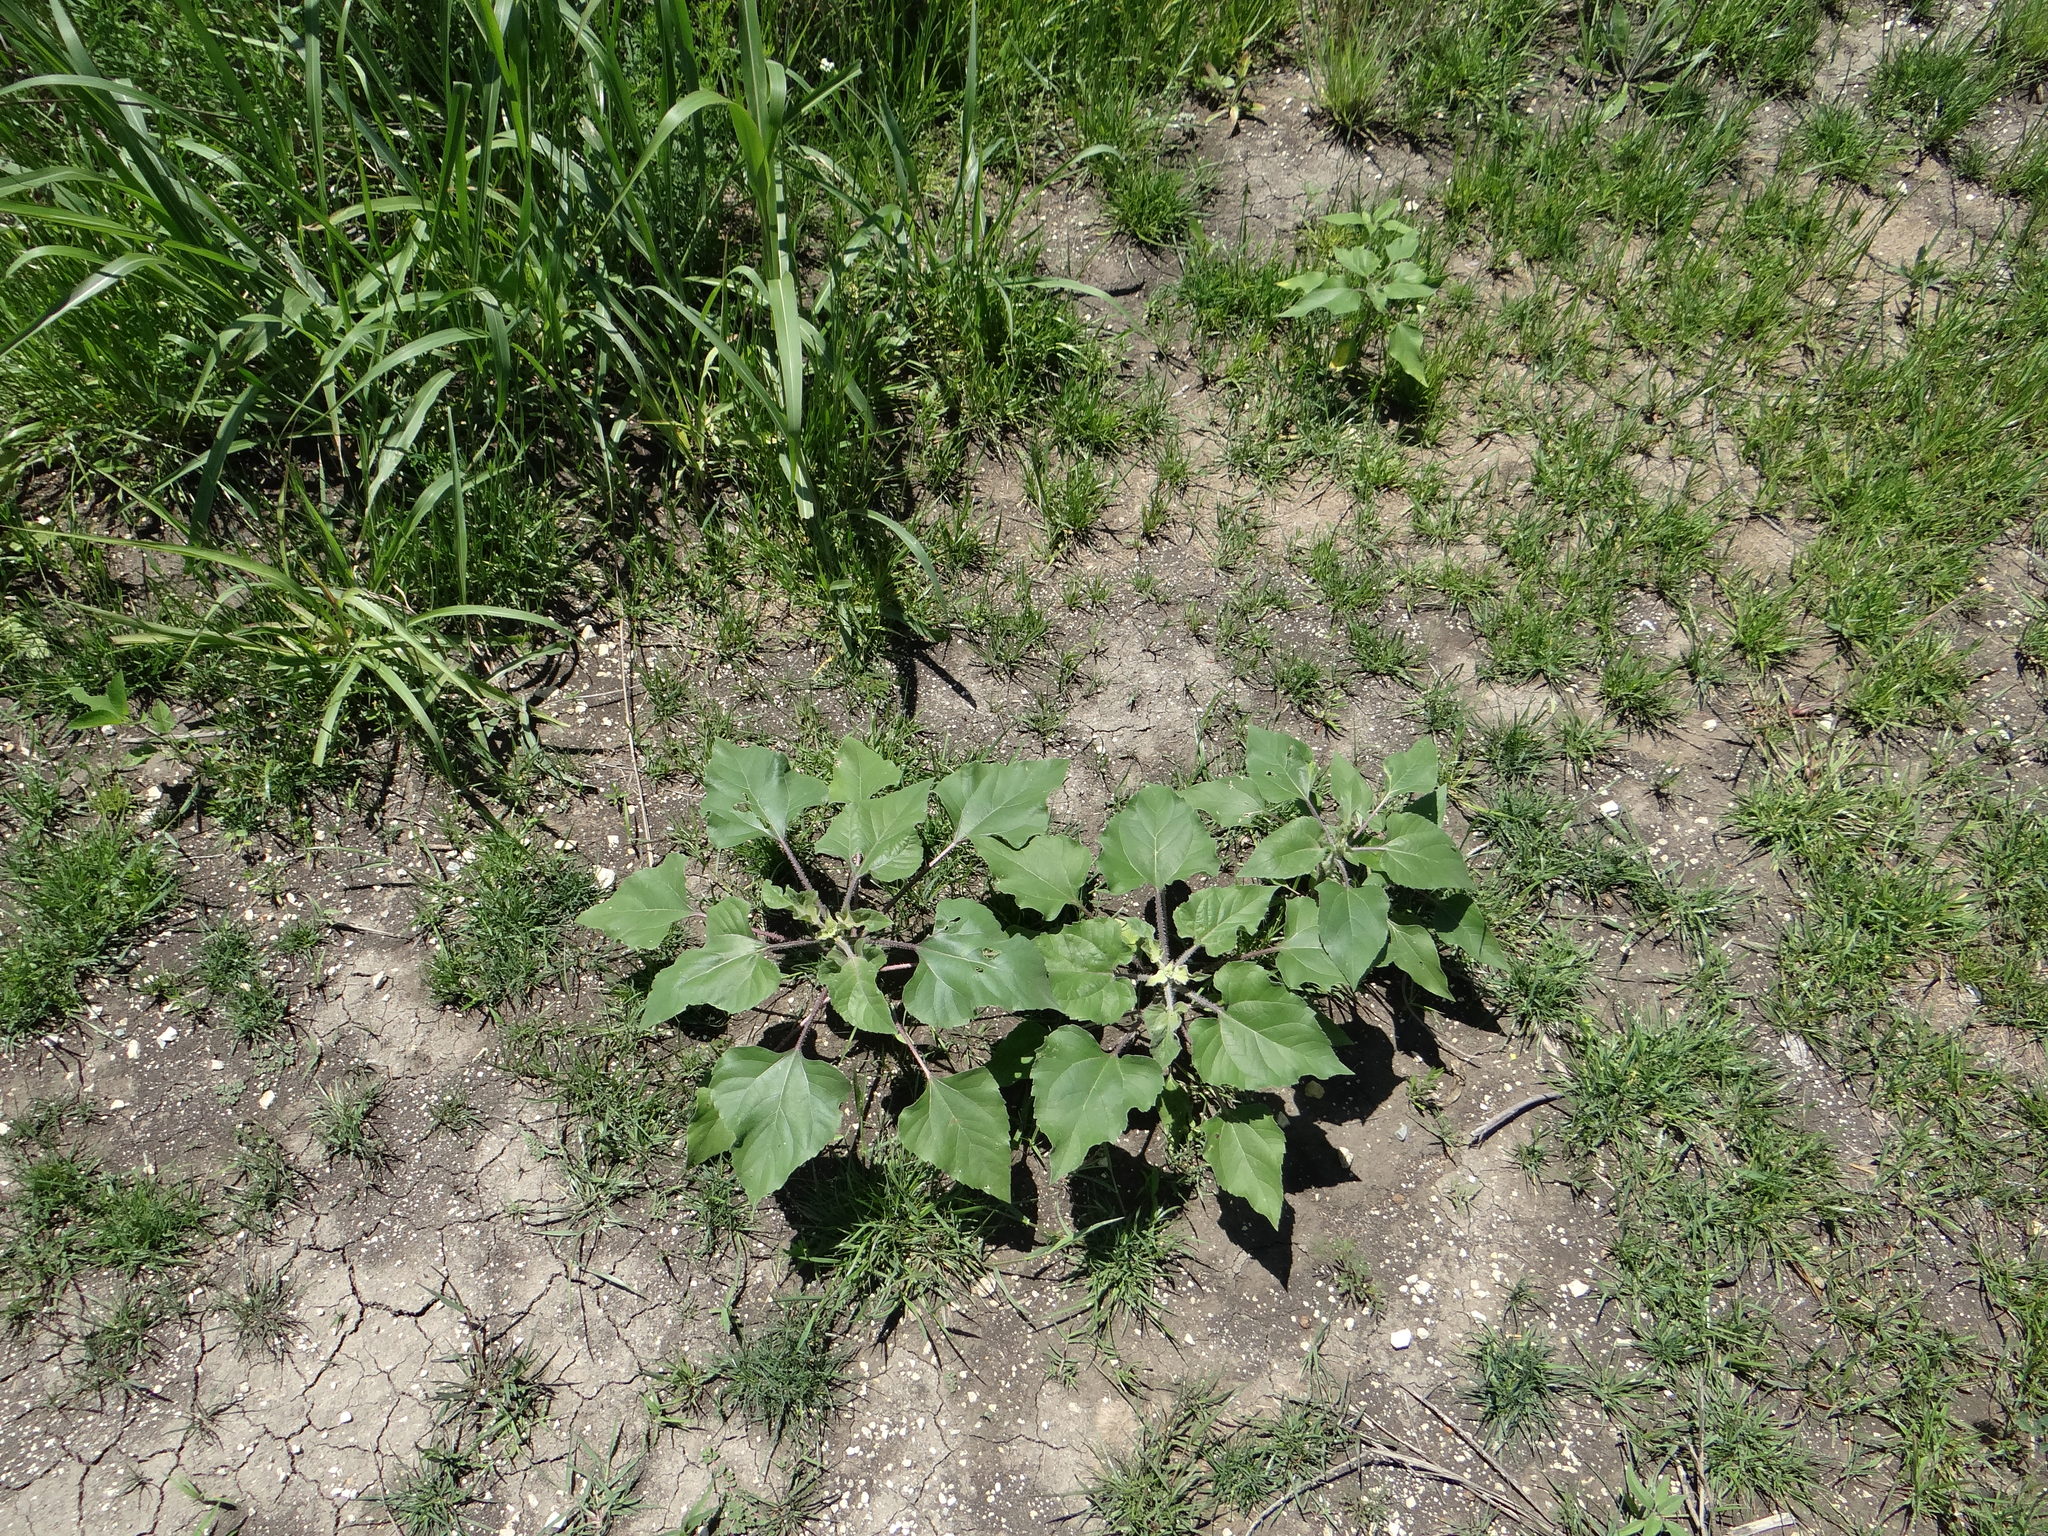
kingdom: Plantae
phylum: Tracheophyta
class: Magnoliopsida
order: Asterales
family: Asteraceae
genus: Helianthus
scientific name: Helianthus annuus
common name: Sunflower
